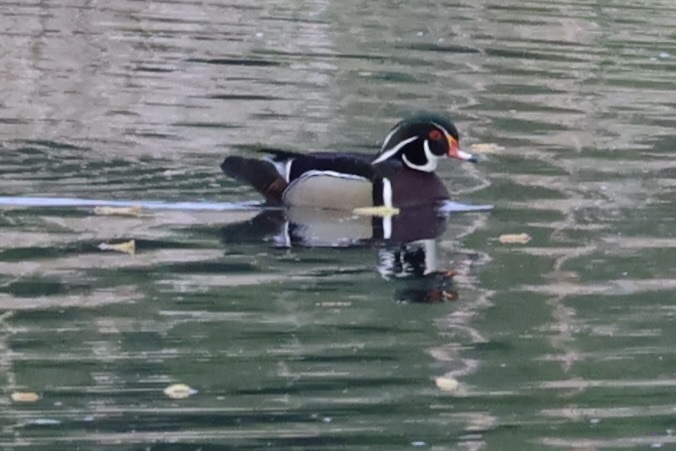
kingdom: Animalia
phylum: Chordata
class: Aves
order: Anseriformes
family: Anatidae
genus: Aix
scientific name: Aix sponsa
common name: Wood duck
